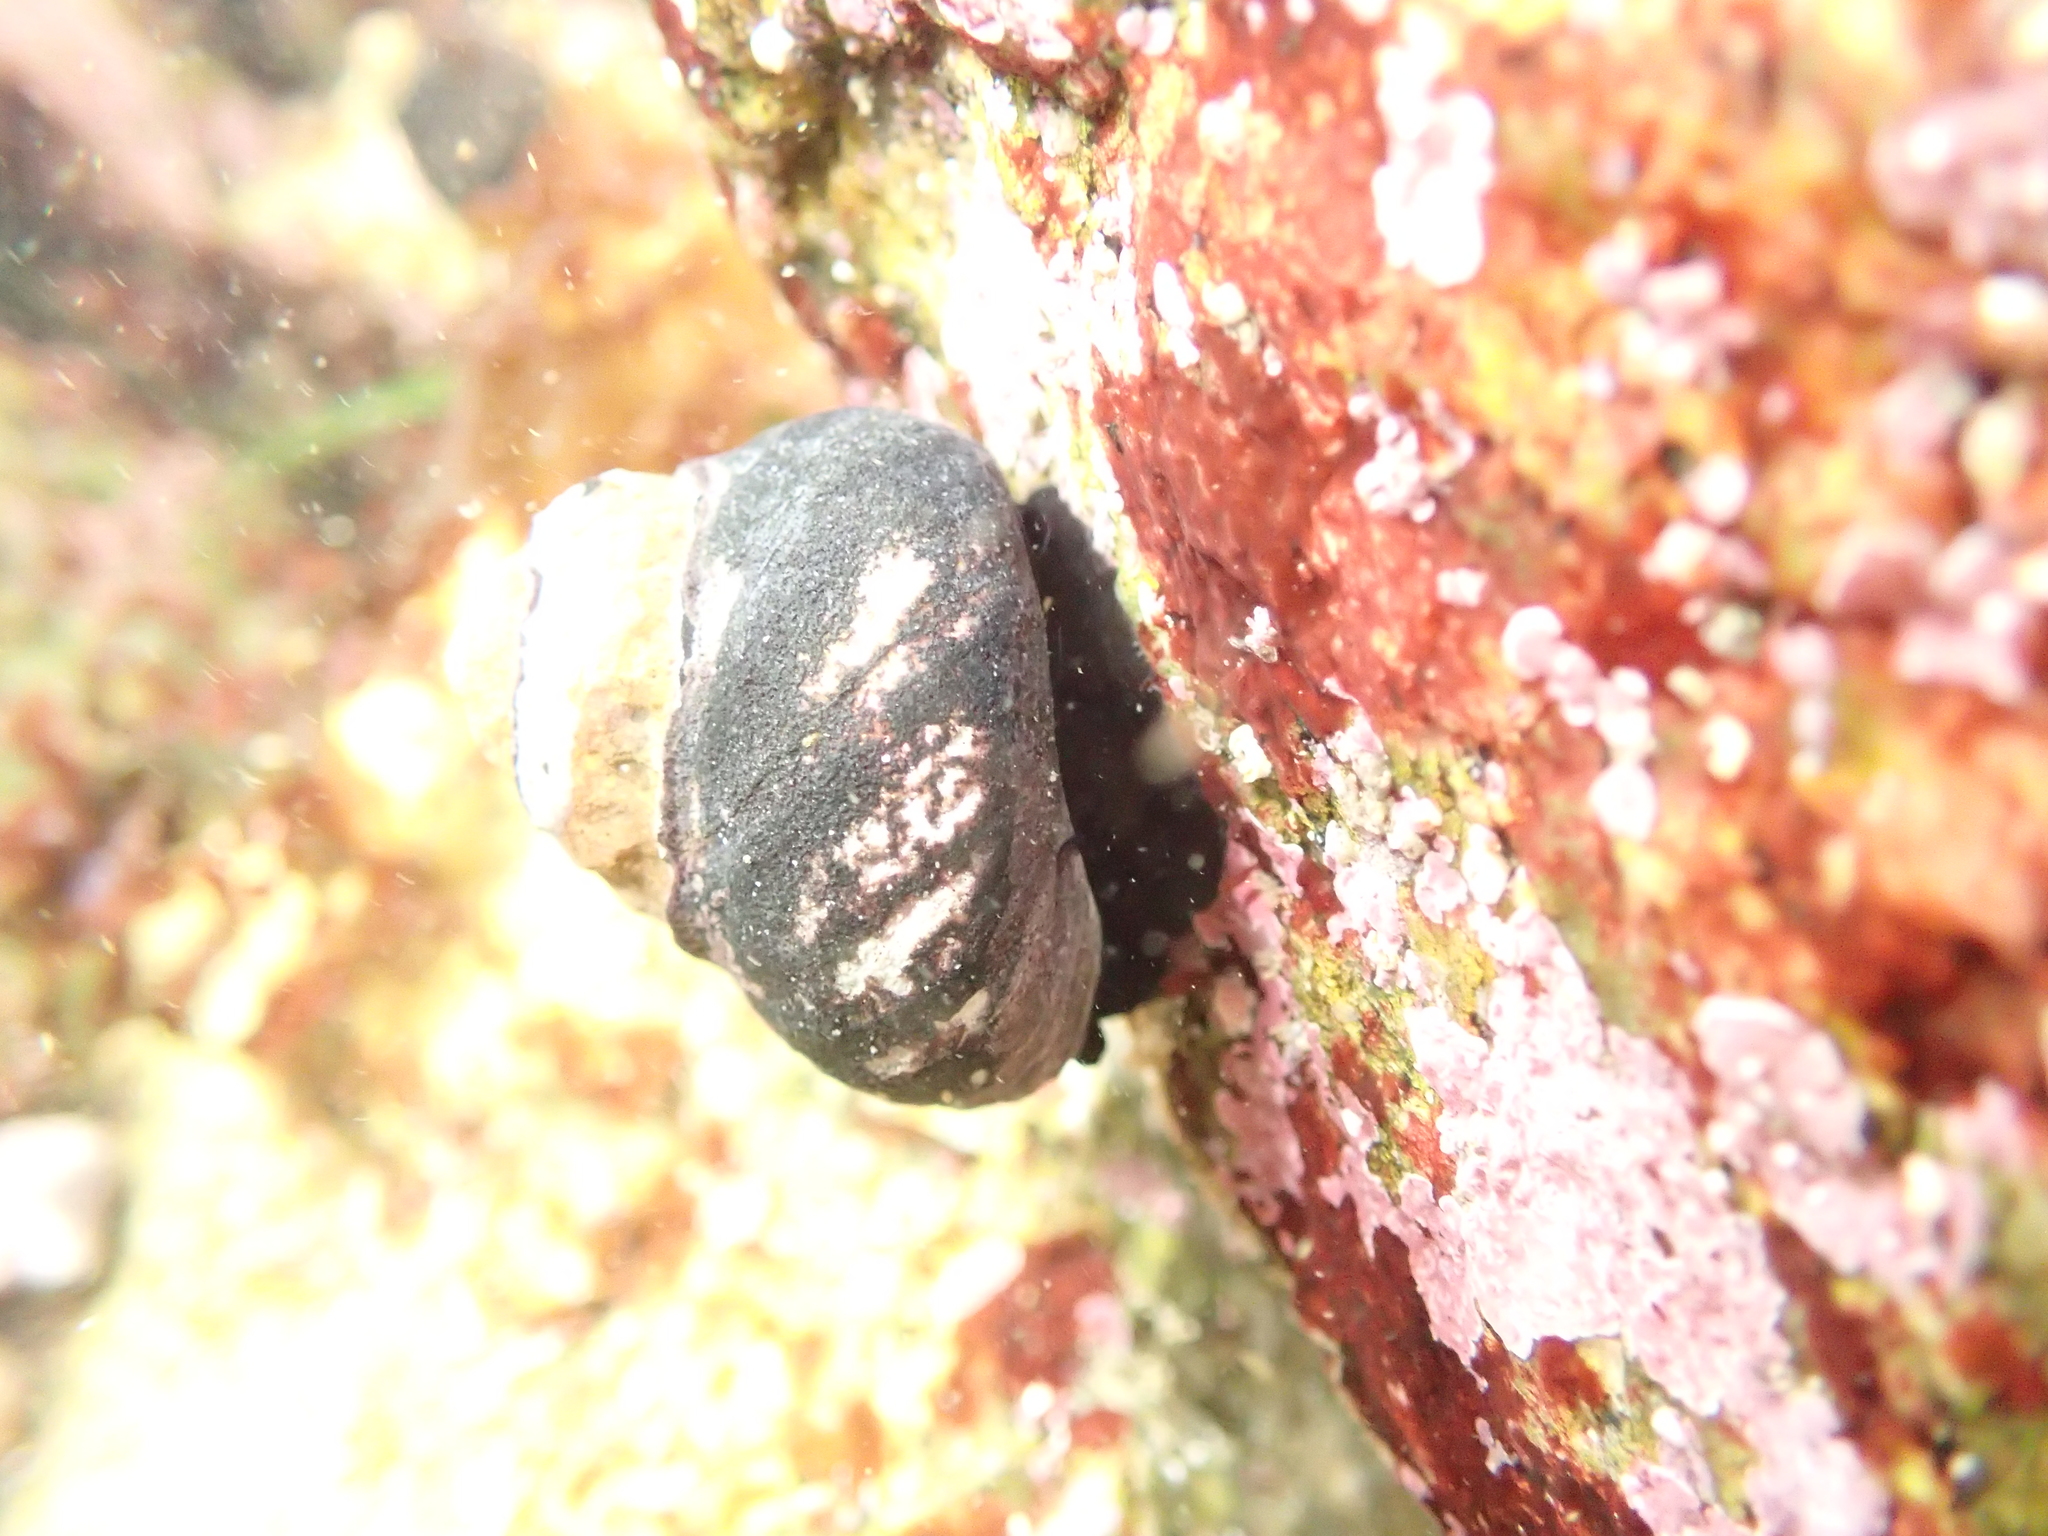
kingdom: Animalia
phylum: Mollusca
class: Gastropoda
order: Trochida
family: Tegulidae
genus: Tegula
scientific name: Tegula funebralis
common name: Black tegula
